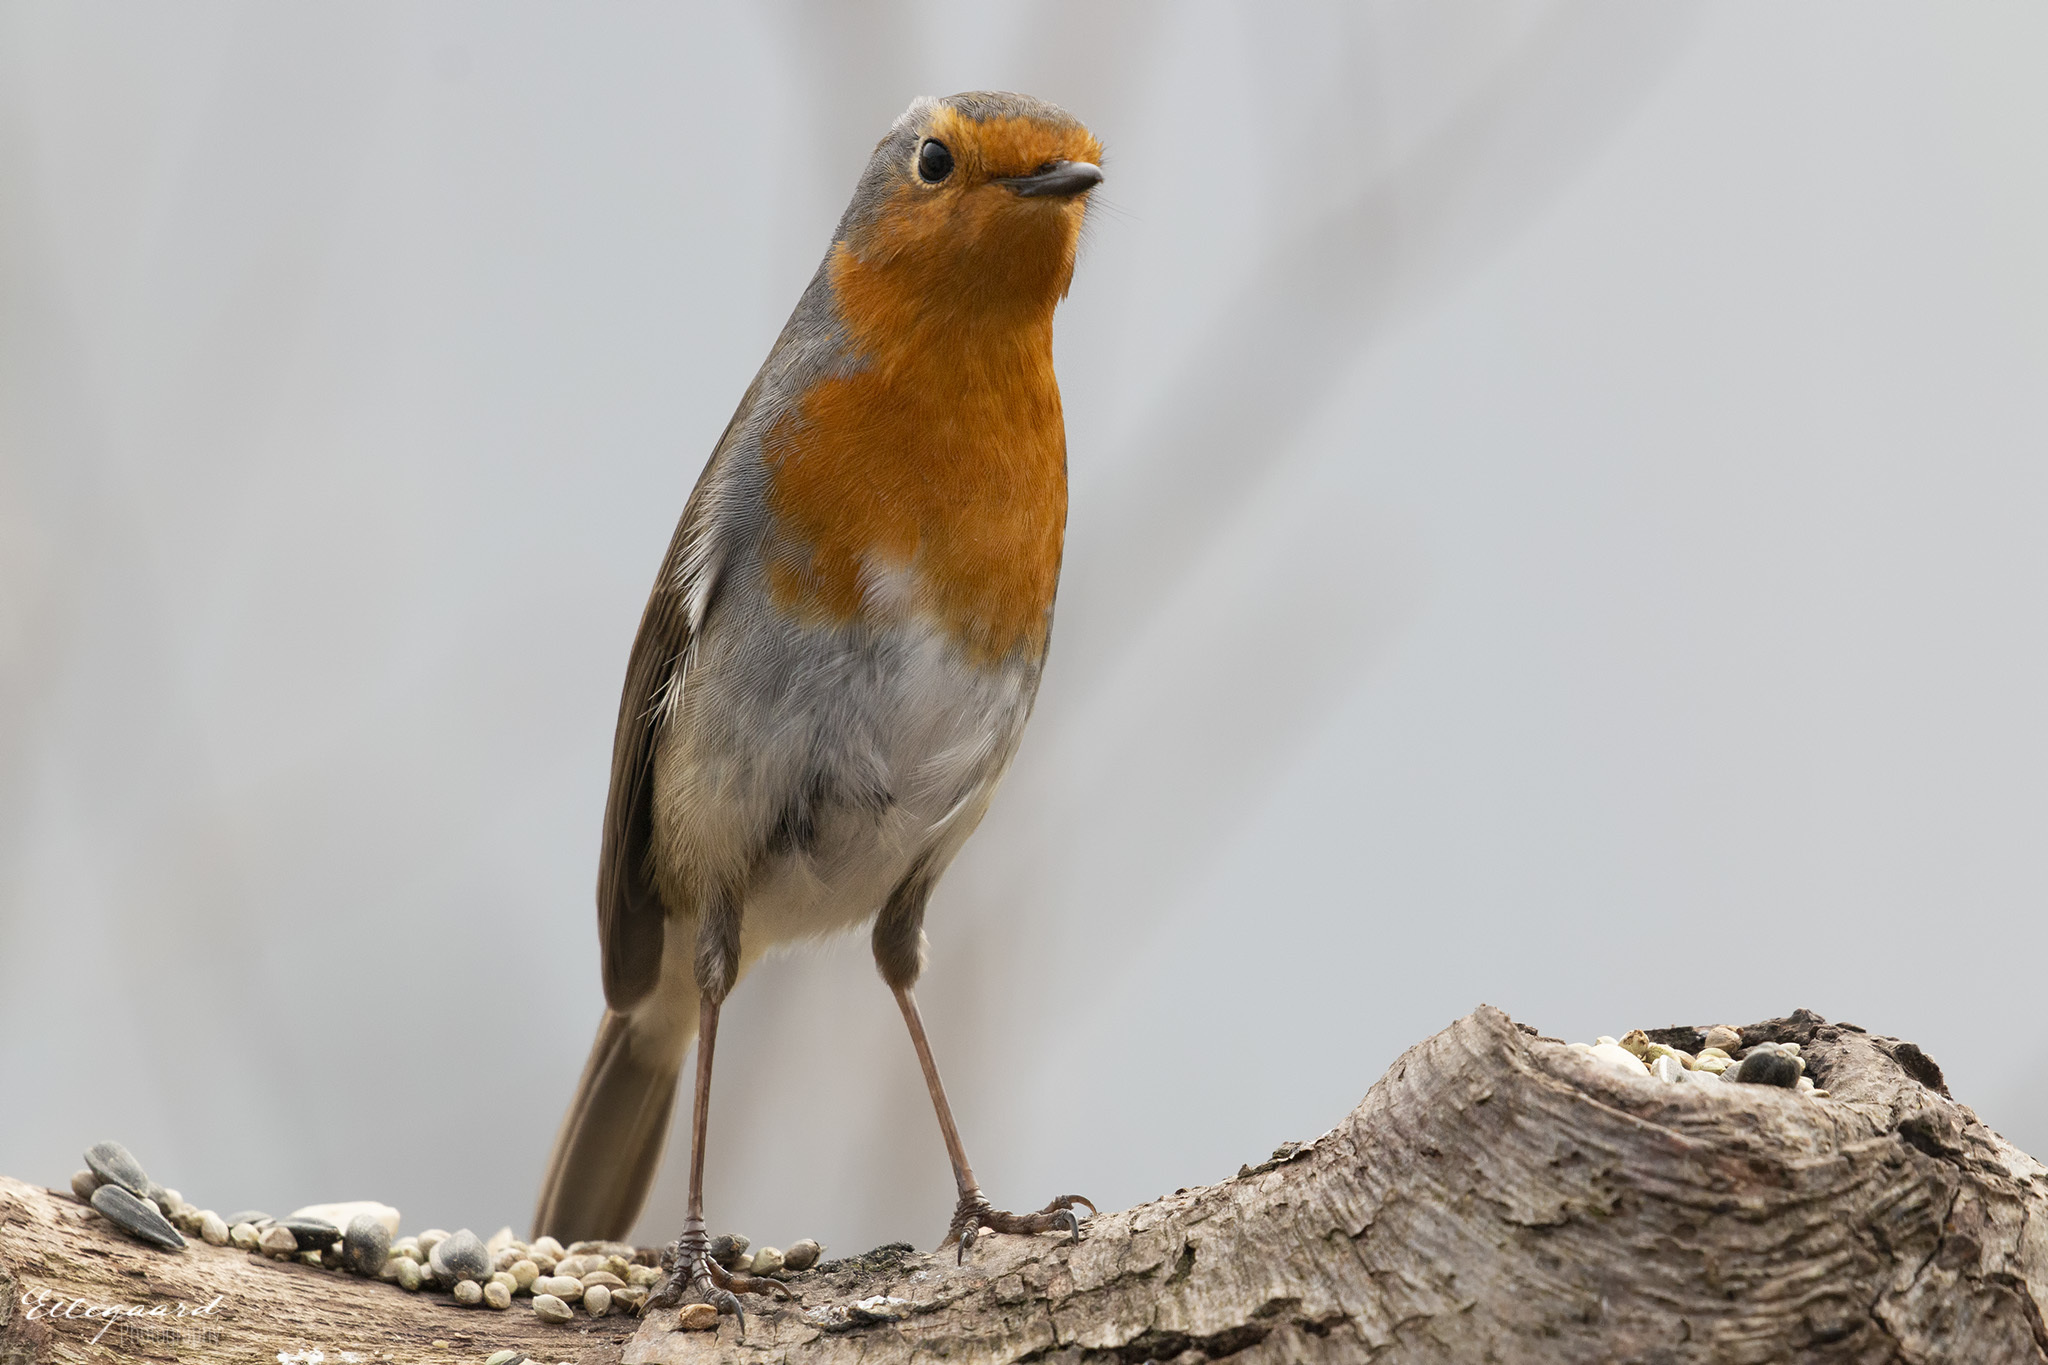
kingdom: Animalia
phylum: Chordata
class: Aves
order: Passeriformes
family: Muscicapidae
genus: Erithacus
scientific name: Erithacus rubecula
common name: European robin
